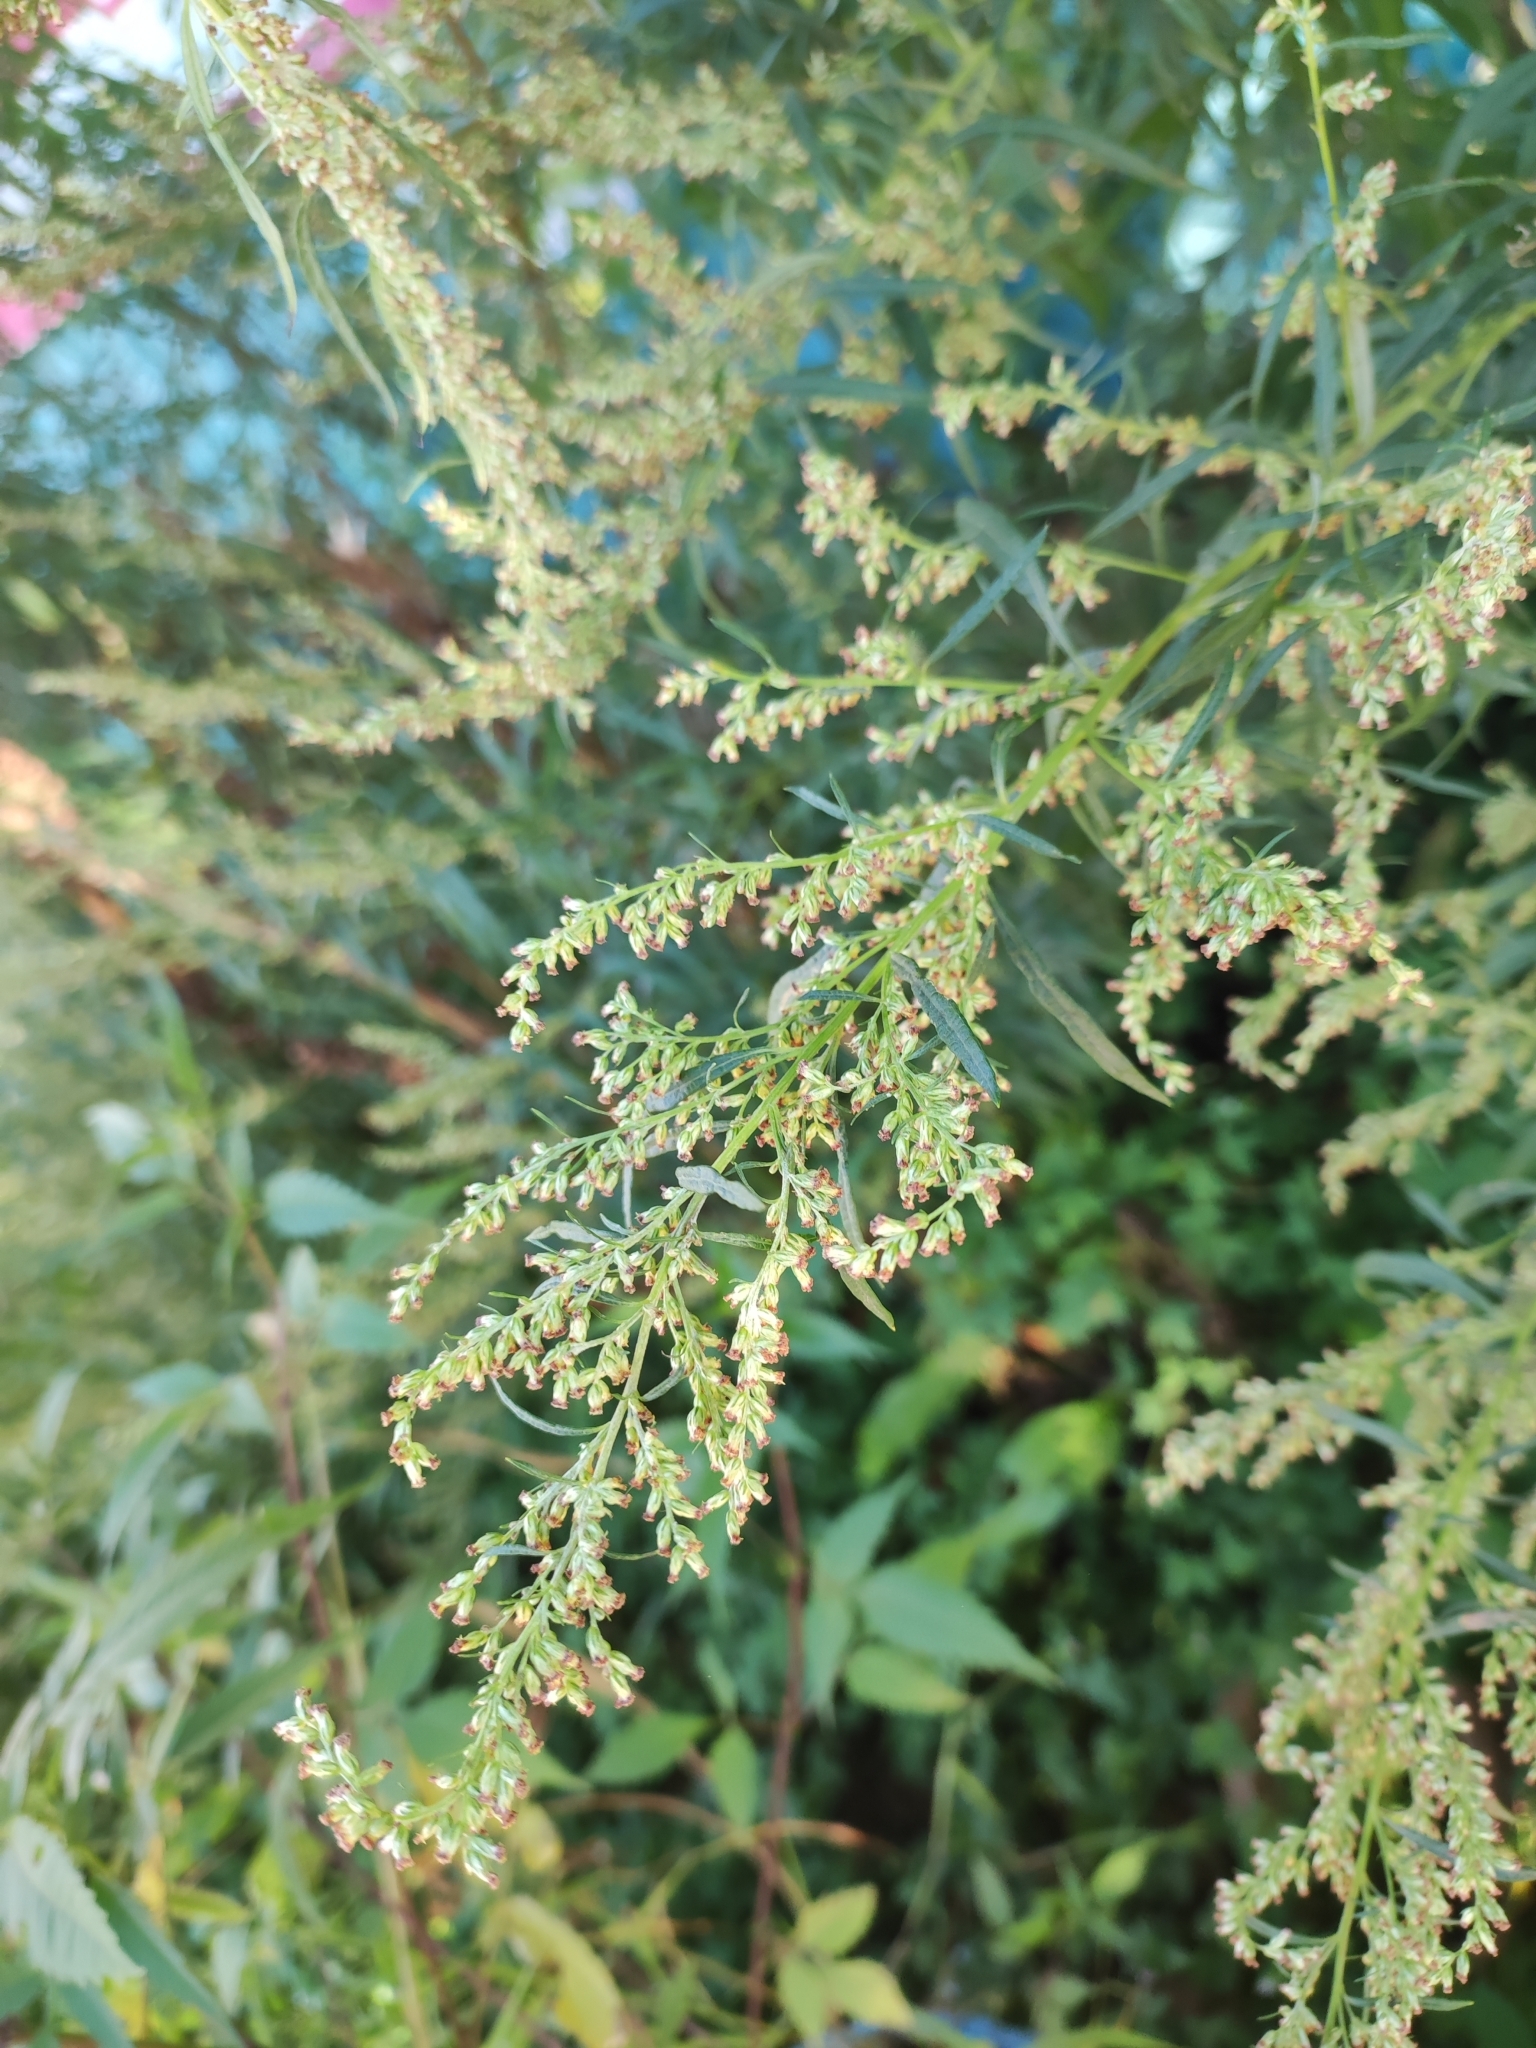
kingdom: Plantae
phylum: Tracheophyta
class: Magnoliopsida
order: Asterales
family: Asteraceae
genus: Artemisia
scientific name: Artemisia vulgaris
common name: Mugwort
